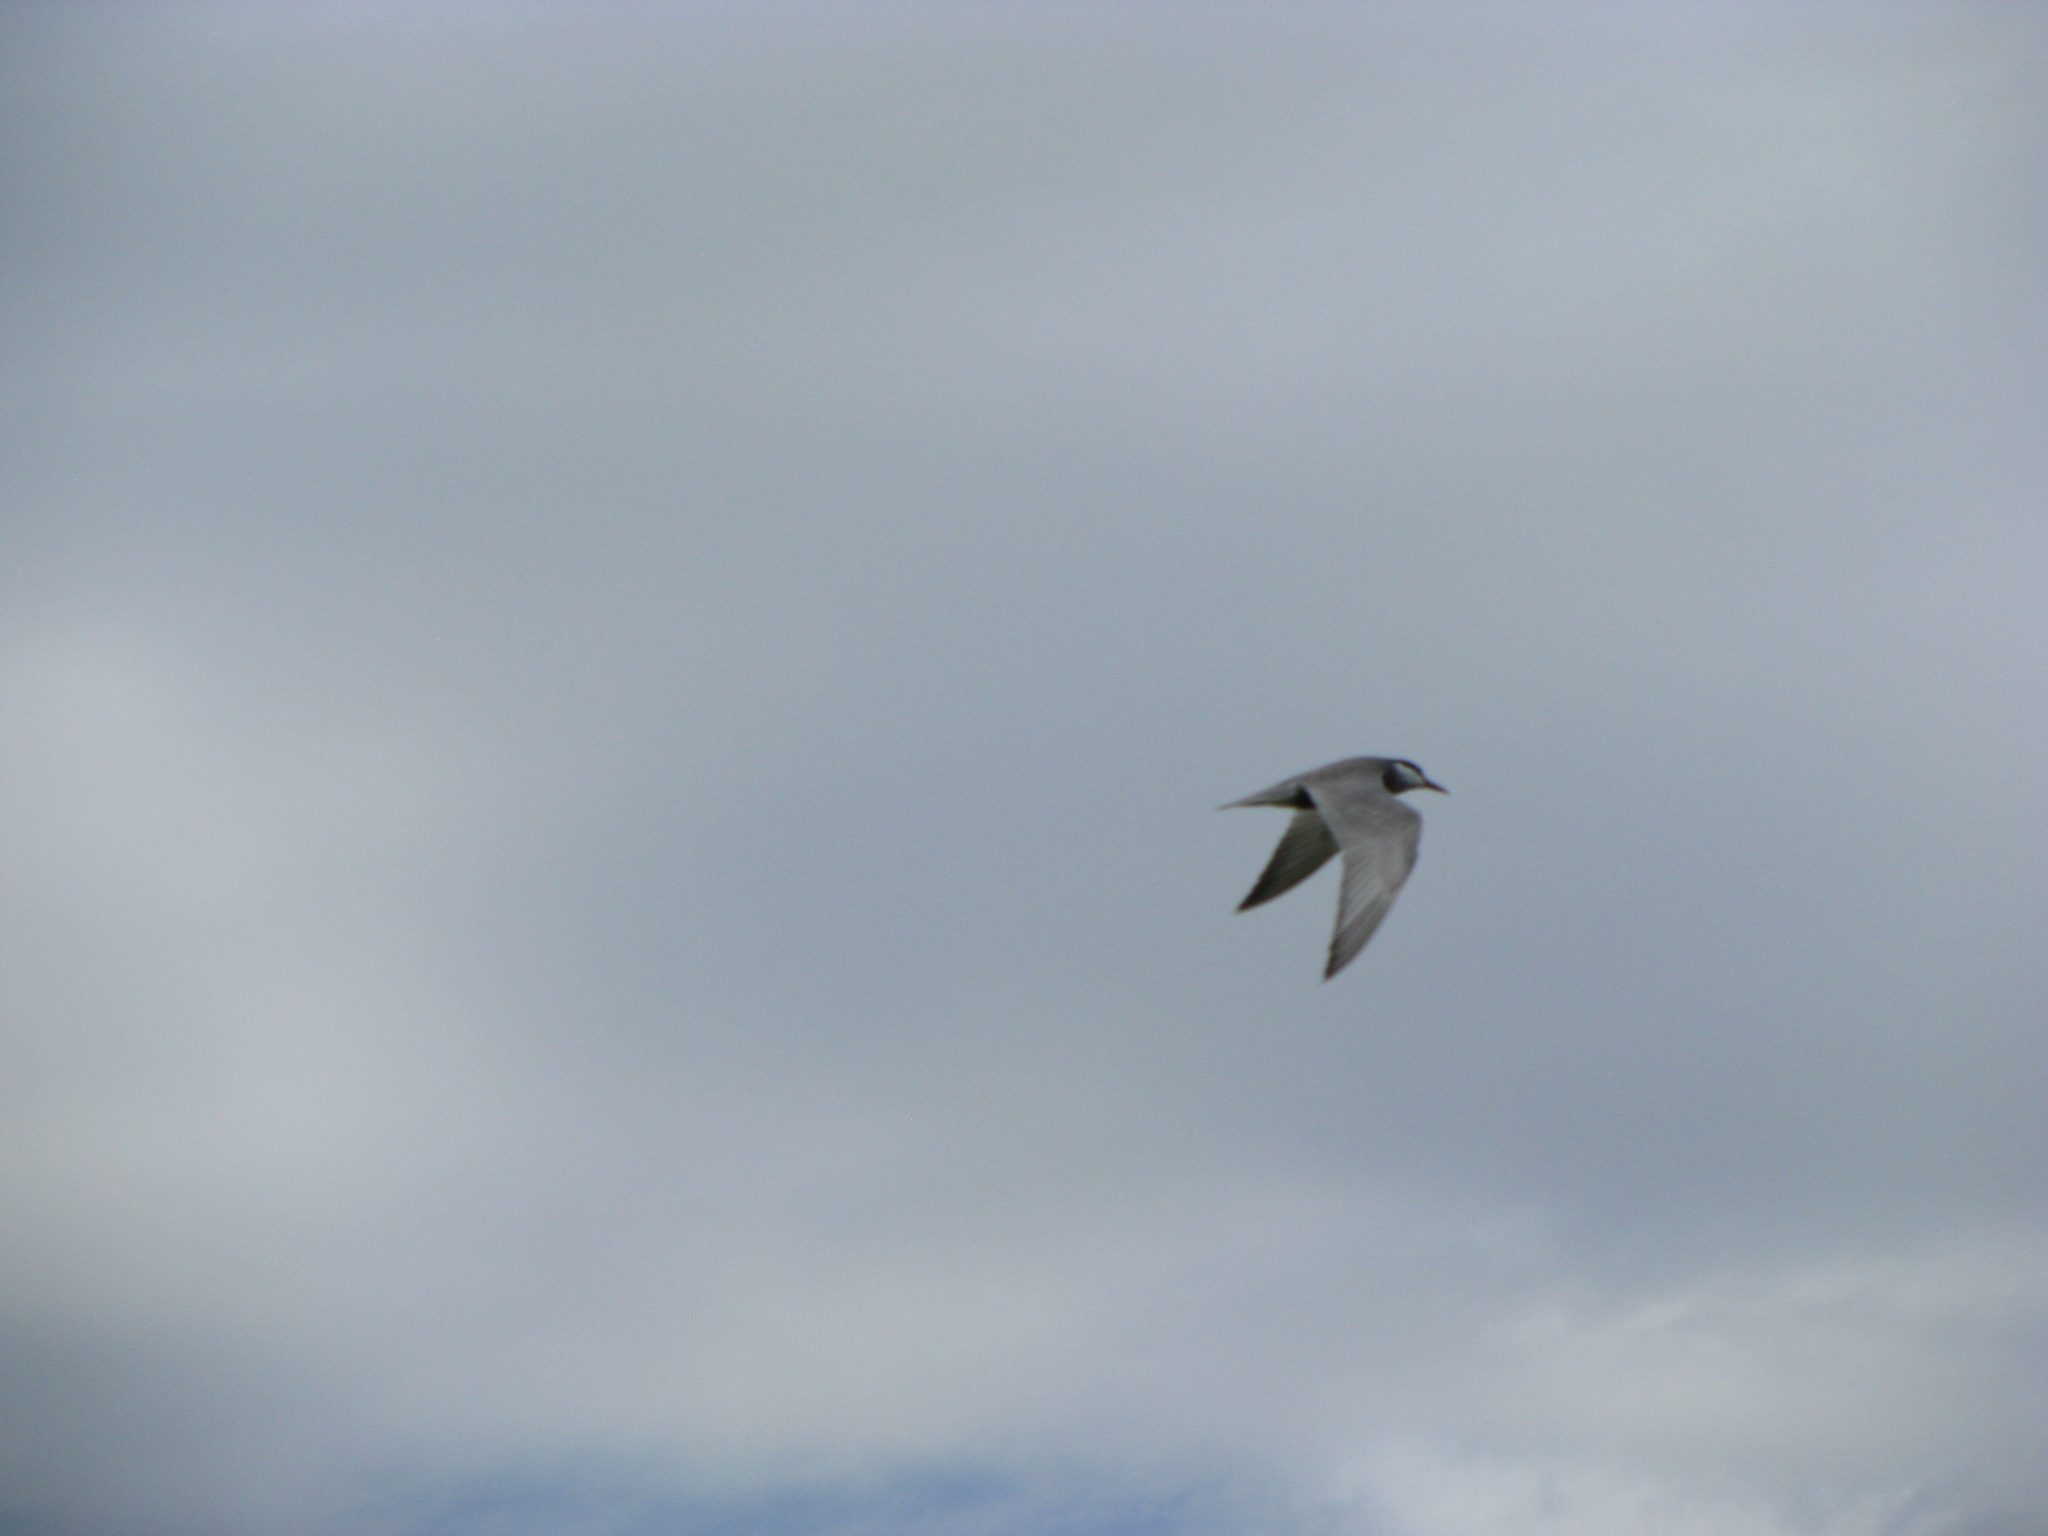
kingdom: Animalia
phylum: Chordata
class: Aves
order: Charadriiformes
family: Laridae
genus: Chlidonias
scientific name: Chlidonias hybrida
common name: Whiskered tern
